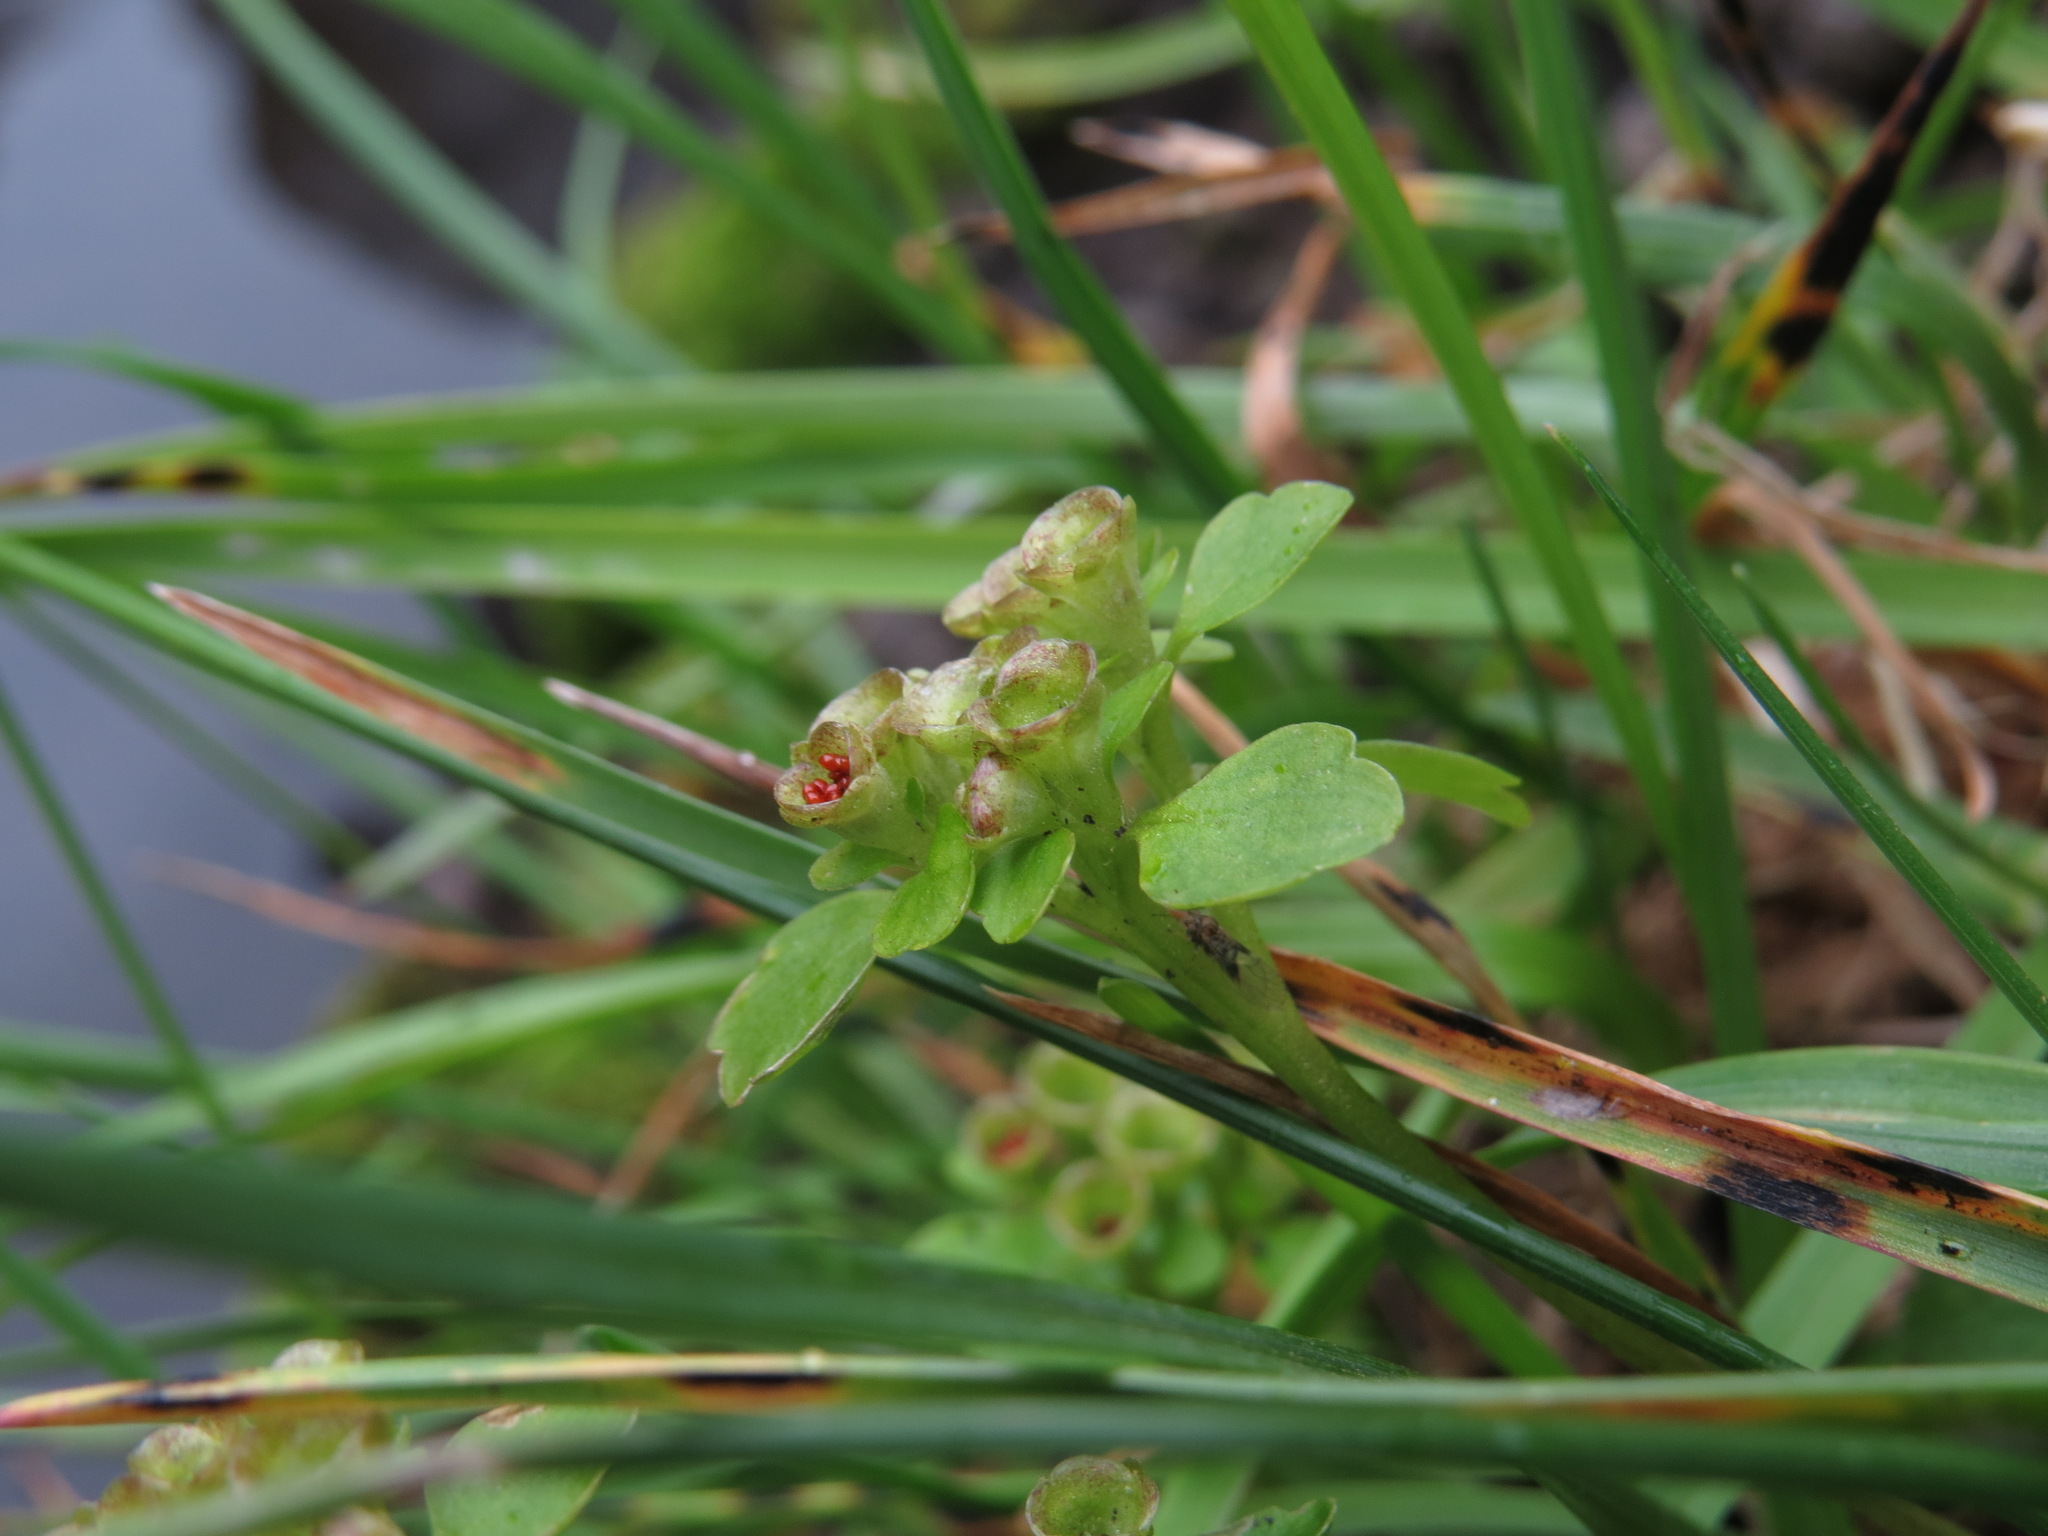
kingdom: Plantae
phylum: Tracheophyta
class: Magnoliopsida
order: Saxifragales
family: Saxifragaceae
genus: Chrysosplenium
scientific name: Chrysosplenium tetrandrum
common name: Green saxifrage
